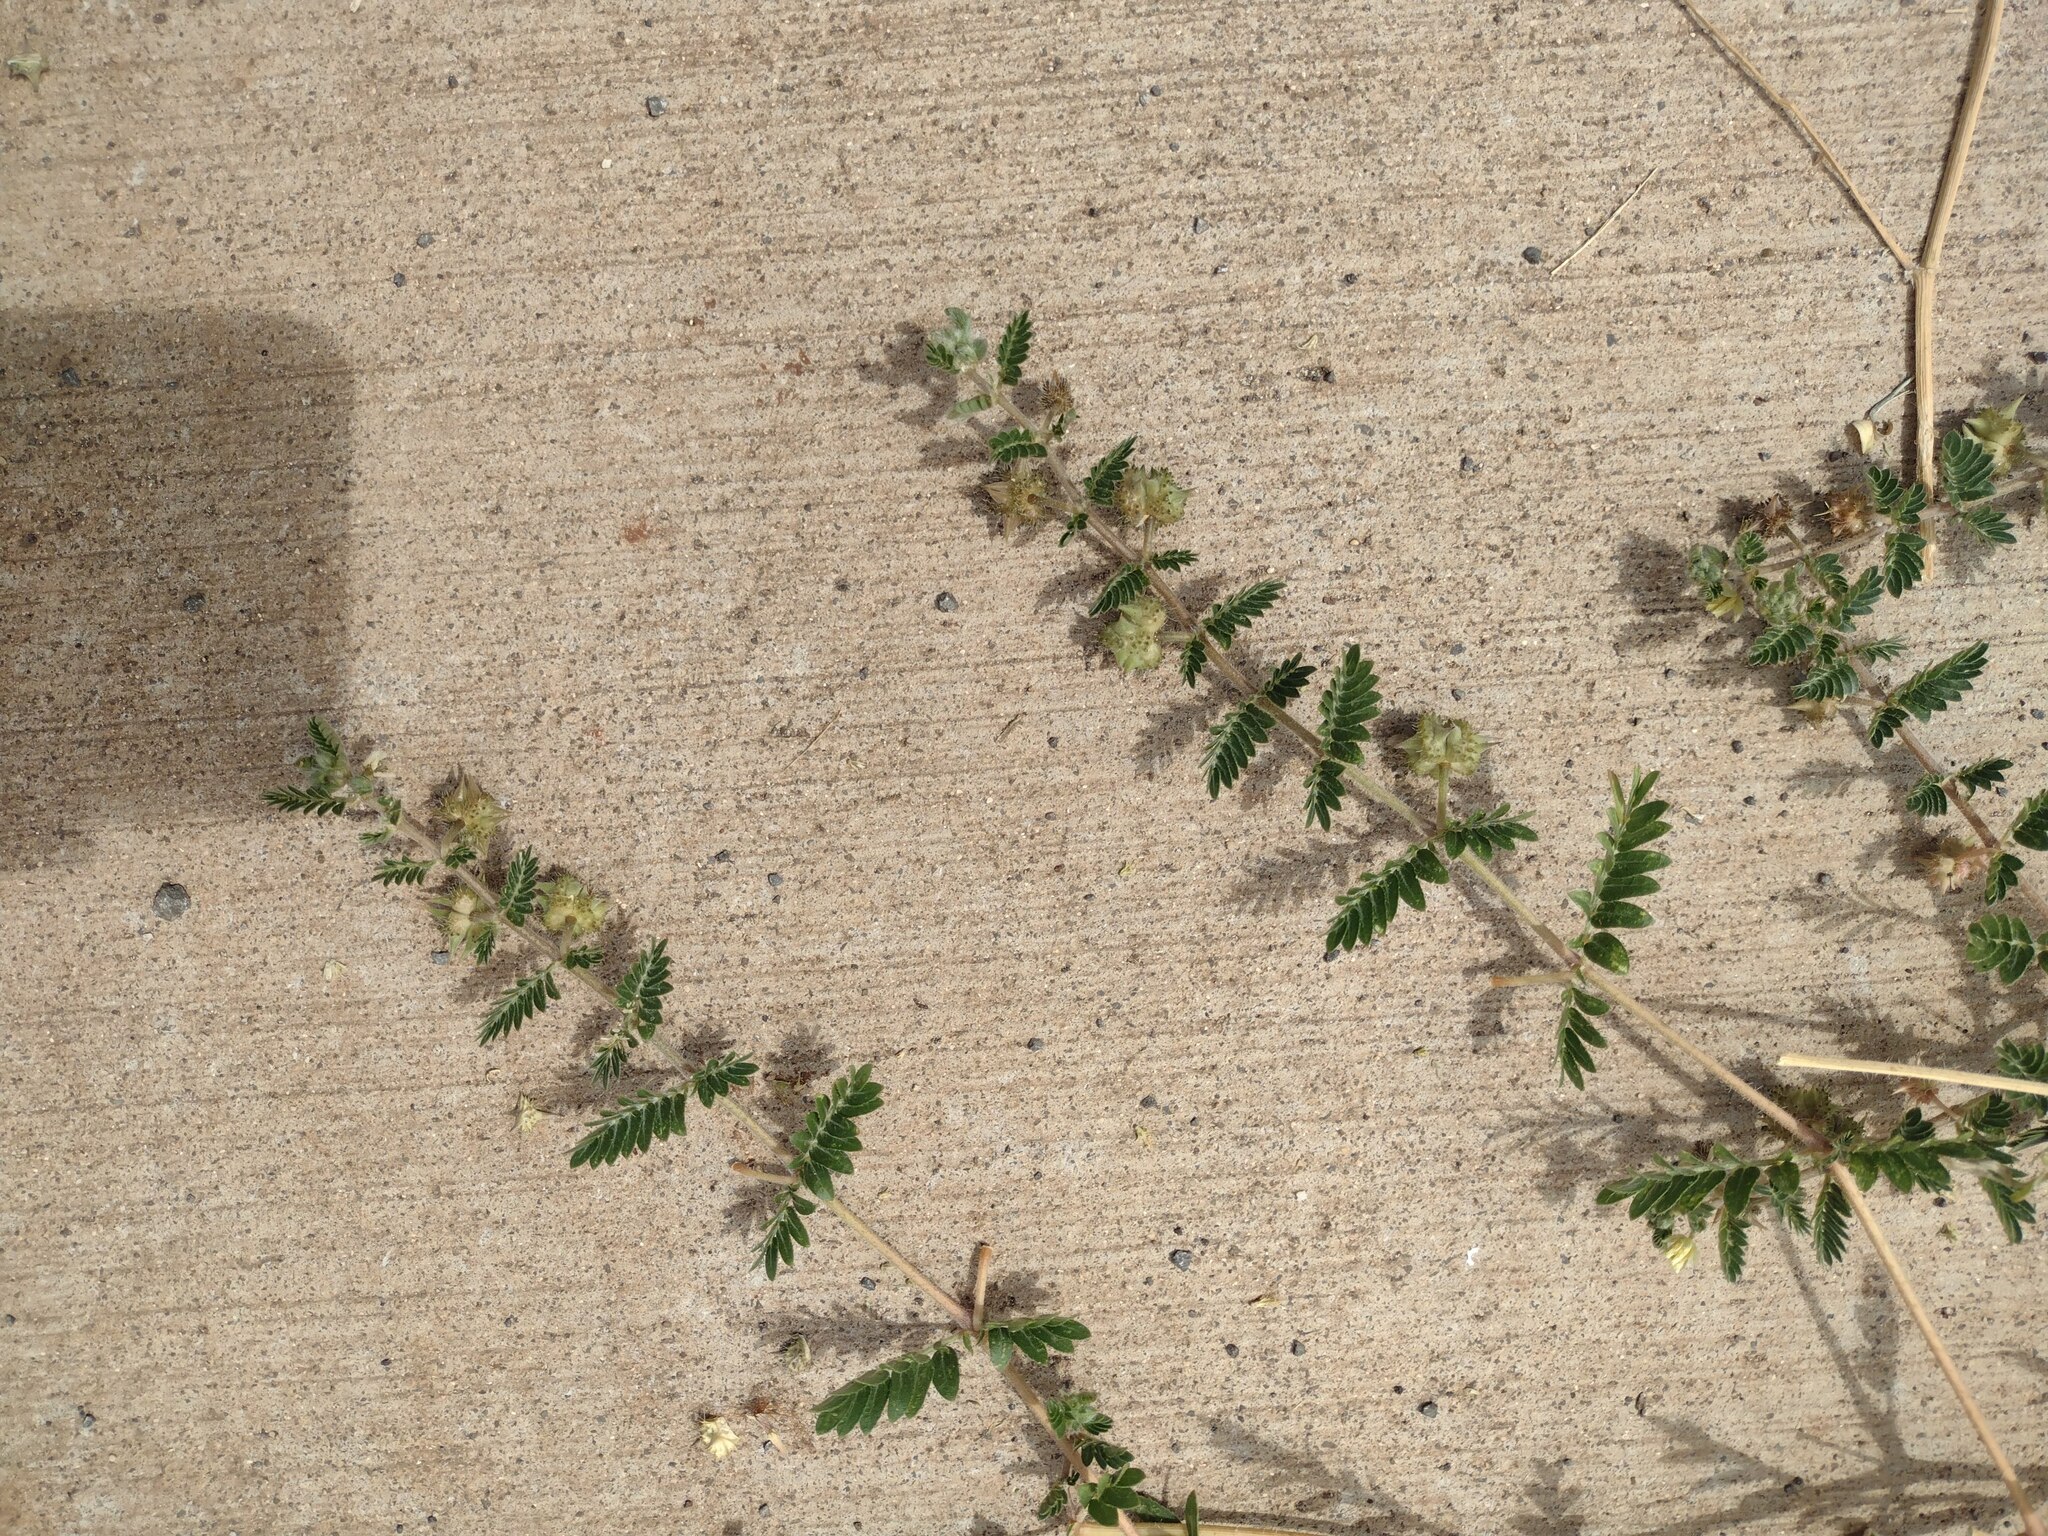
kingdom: Plantae
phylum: Tracheophyta
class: Magnoliopsida
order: Zygophyllales
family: Zygophyllaceae
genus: Tribulus
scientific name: Tribulus terrestris
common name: Puncturevine
